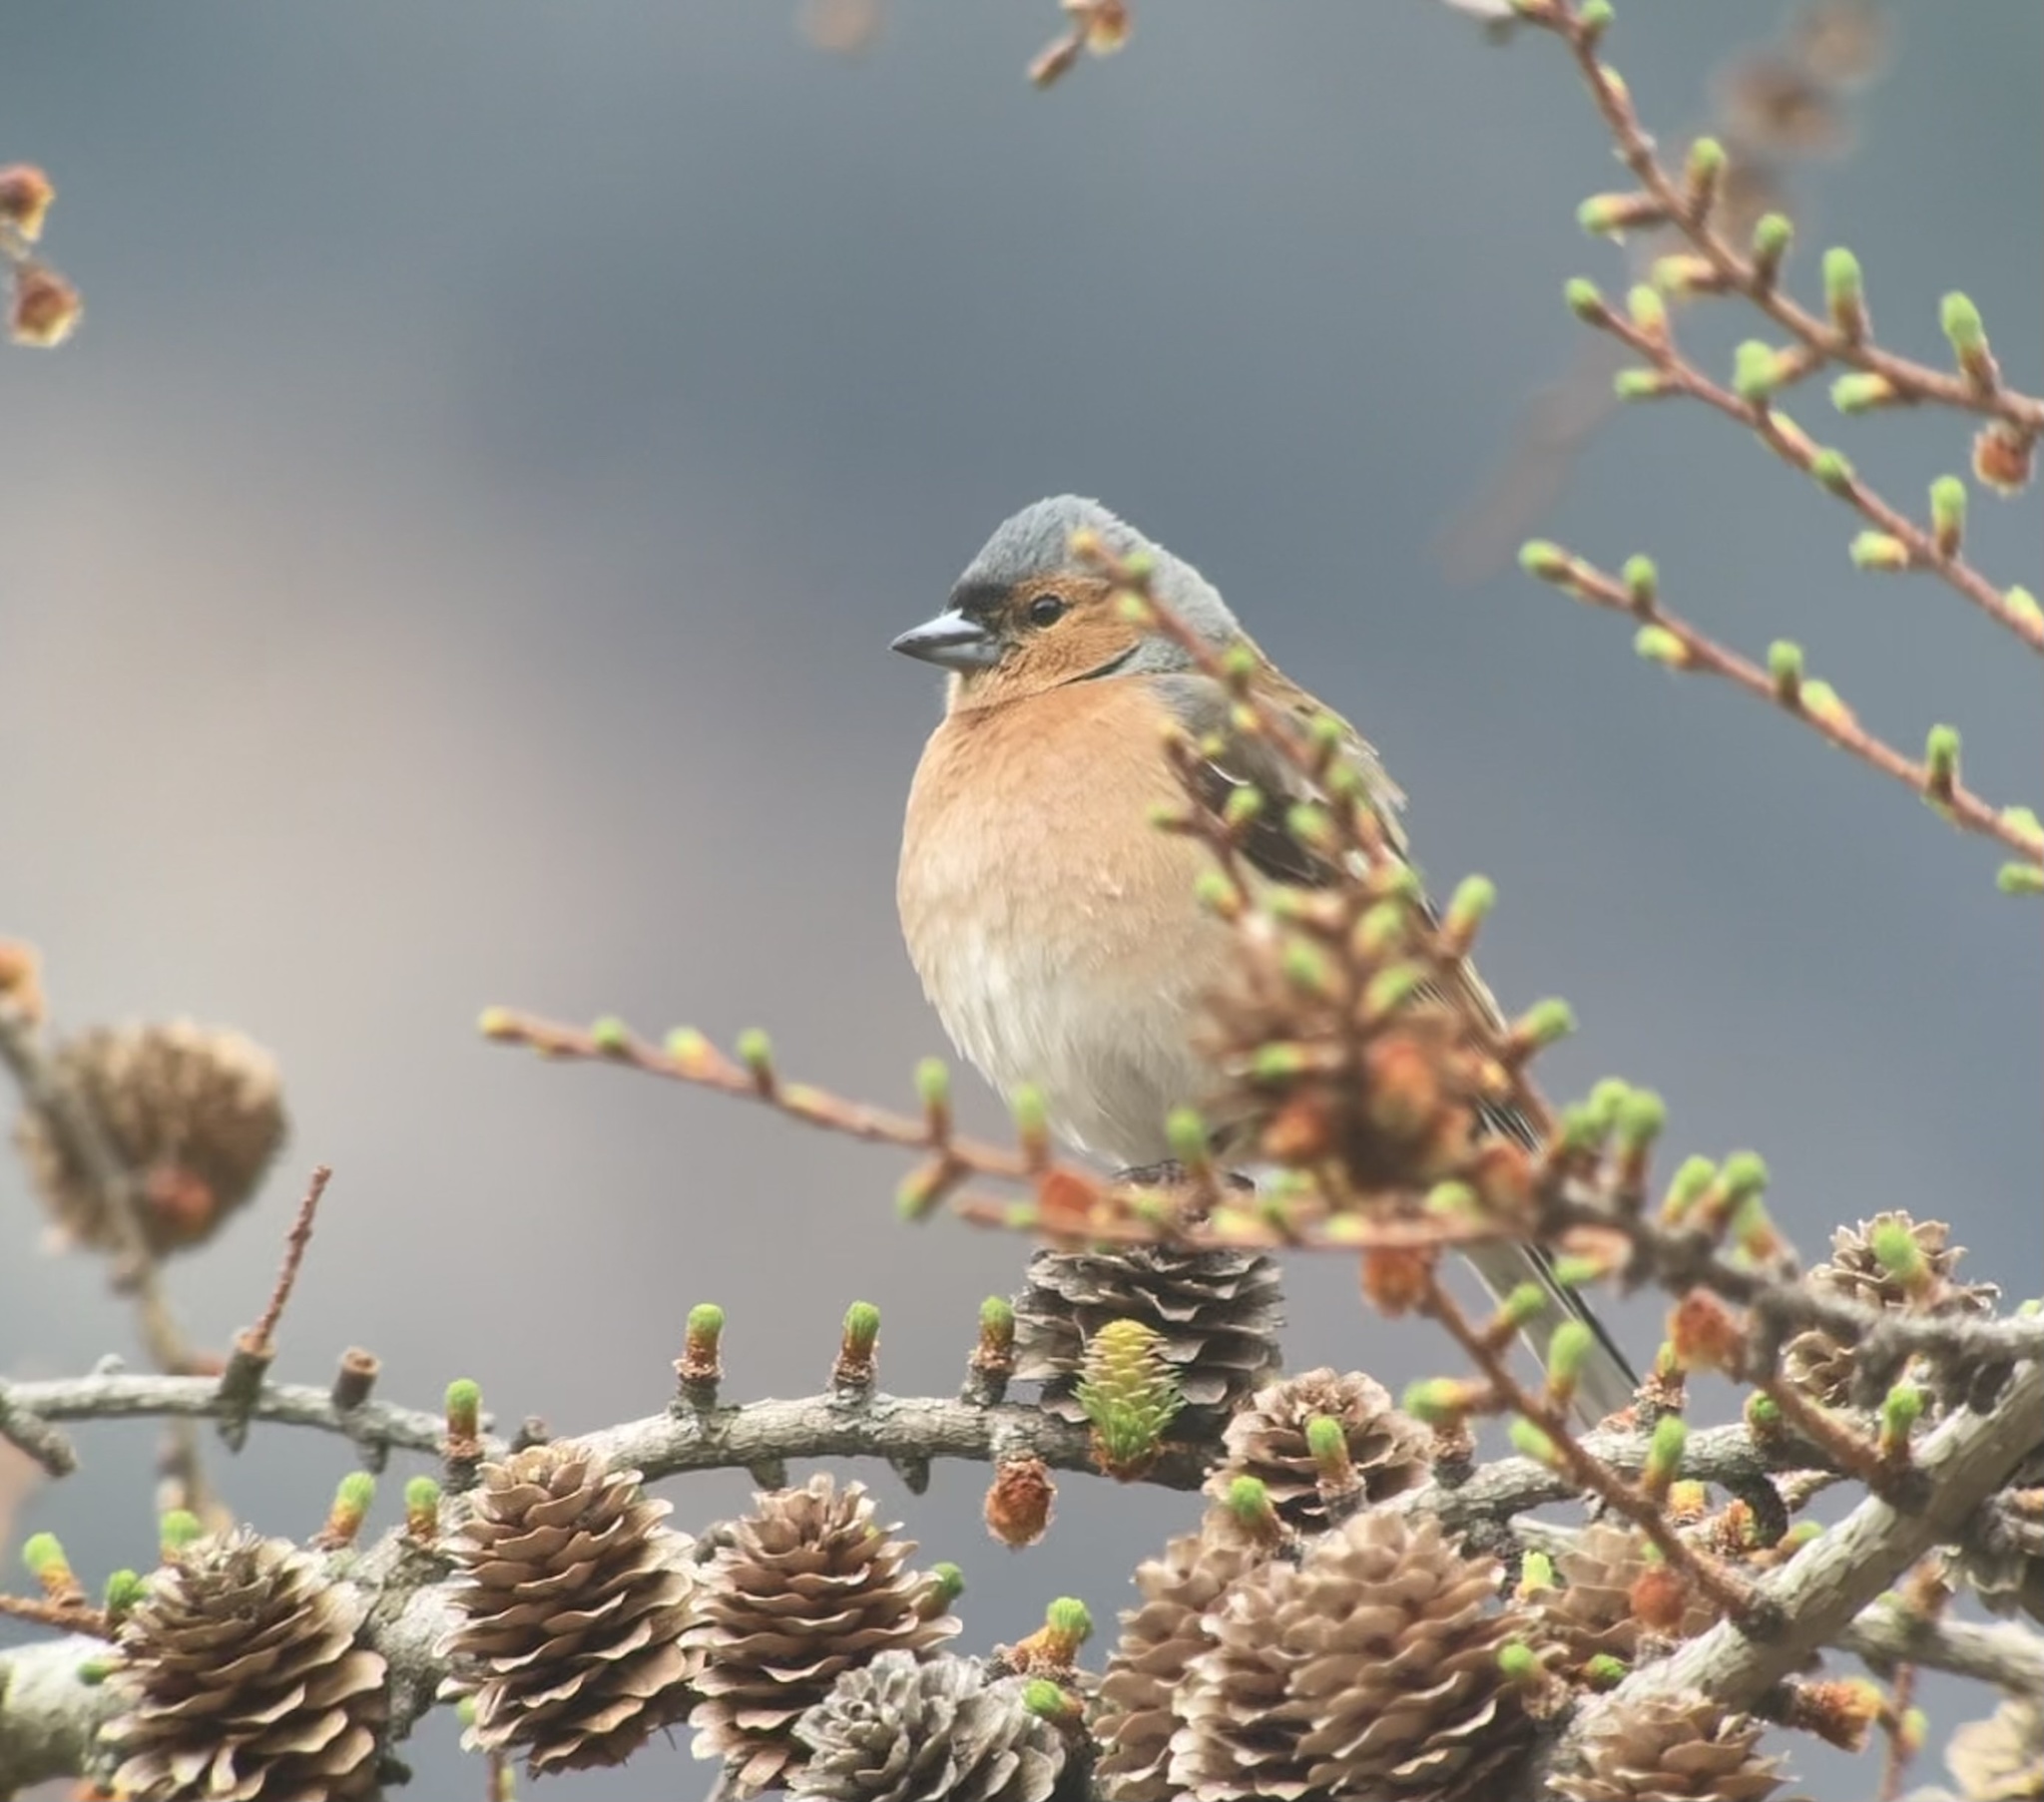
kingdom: Animalia
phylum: Chordata
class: Aves
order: Passeriformes
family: Fringillidae
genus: Fringilla
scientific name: Fringilla coelebs
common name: Common chaffinch
